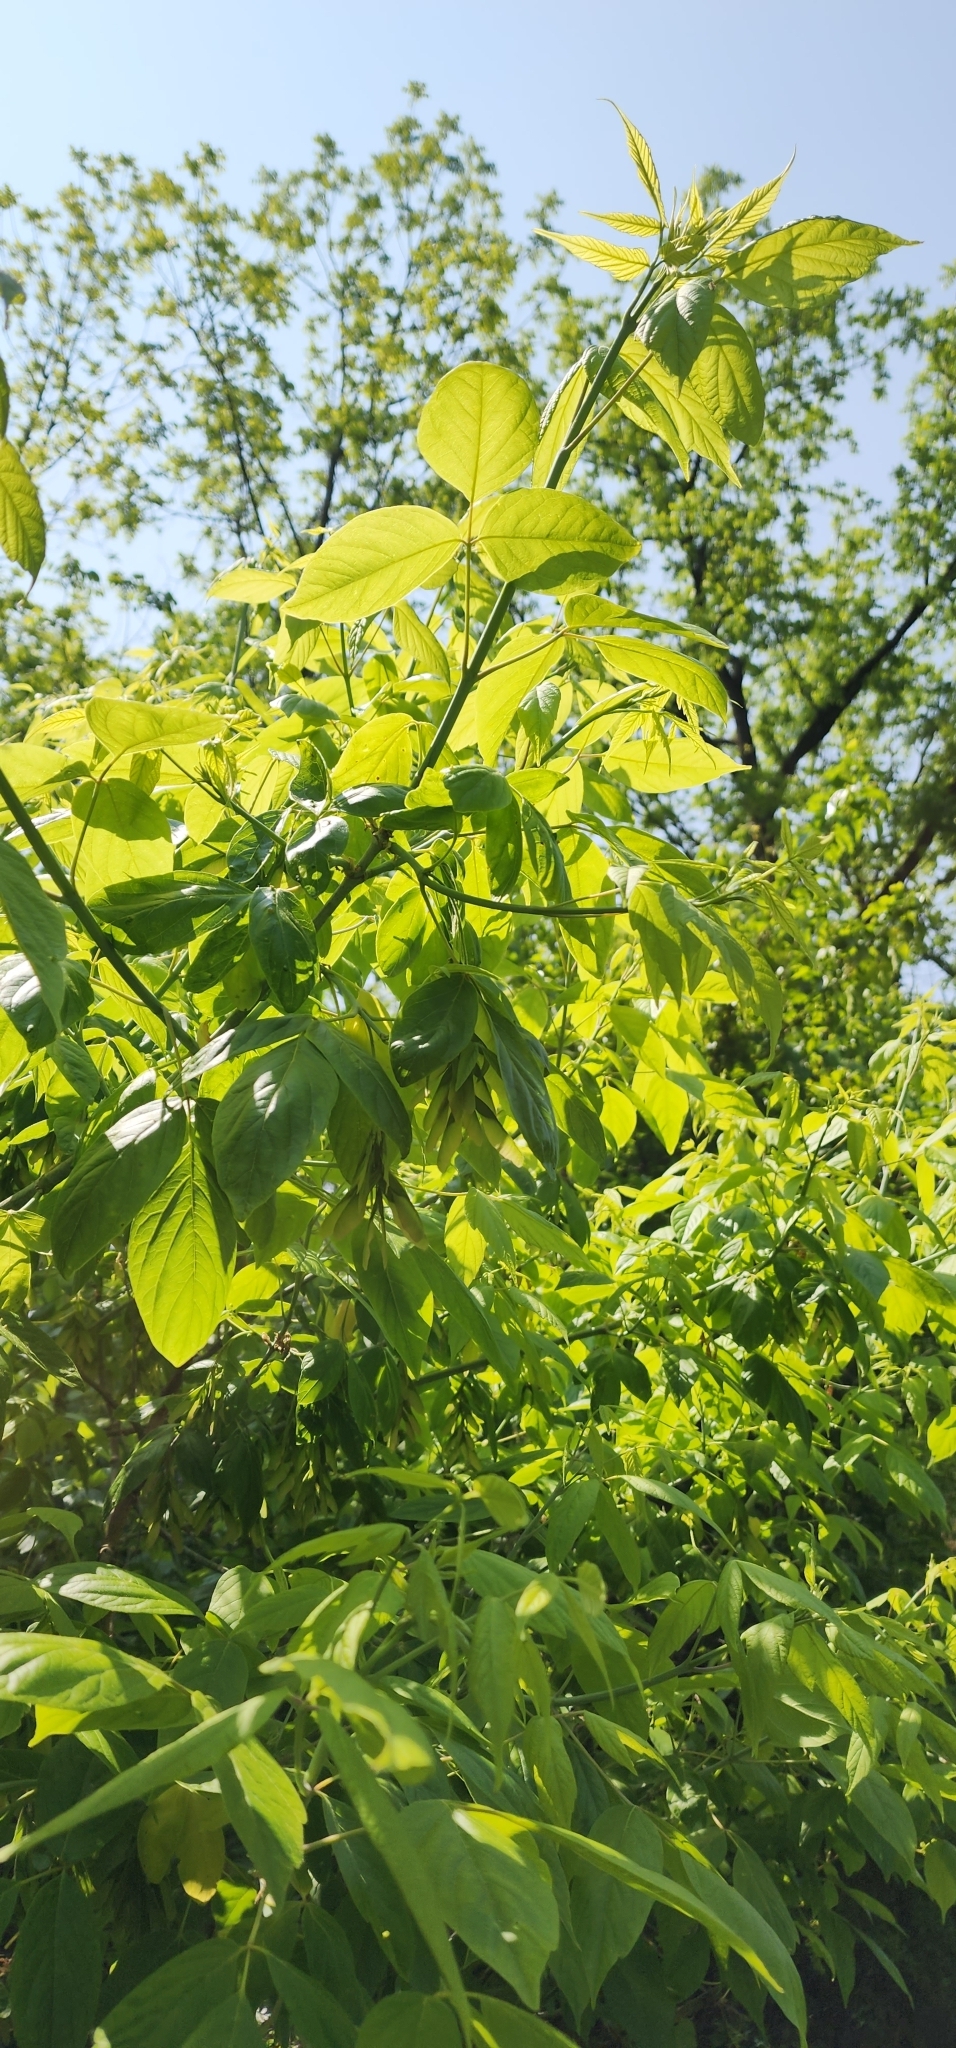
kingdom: Plantae
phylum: Tracheophyta
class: Magnoliopsida
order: Sapindales
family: Sapindaceae
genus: Acer
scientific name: Acer negundo
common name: Ashleaf maple
